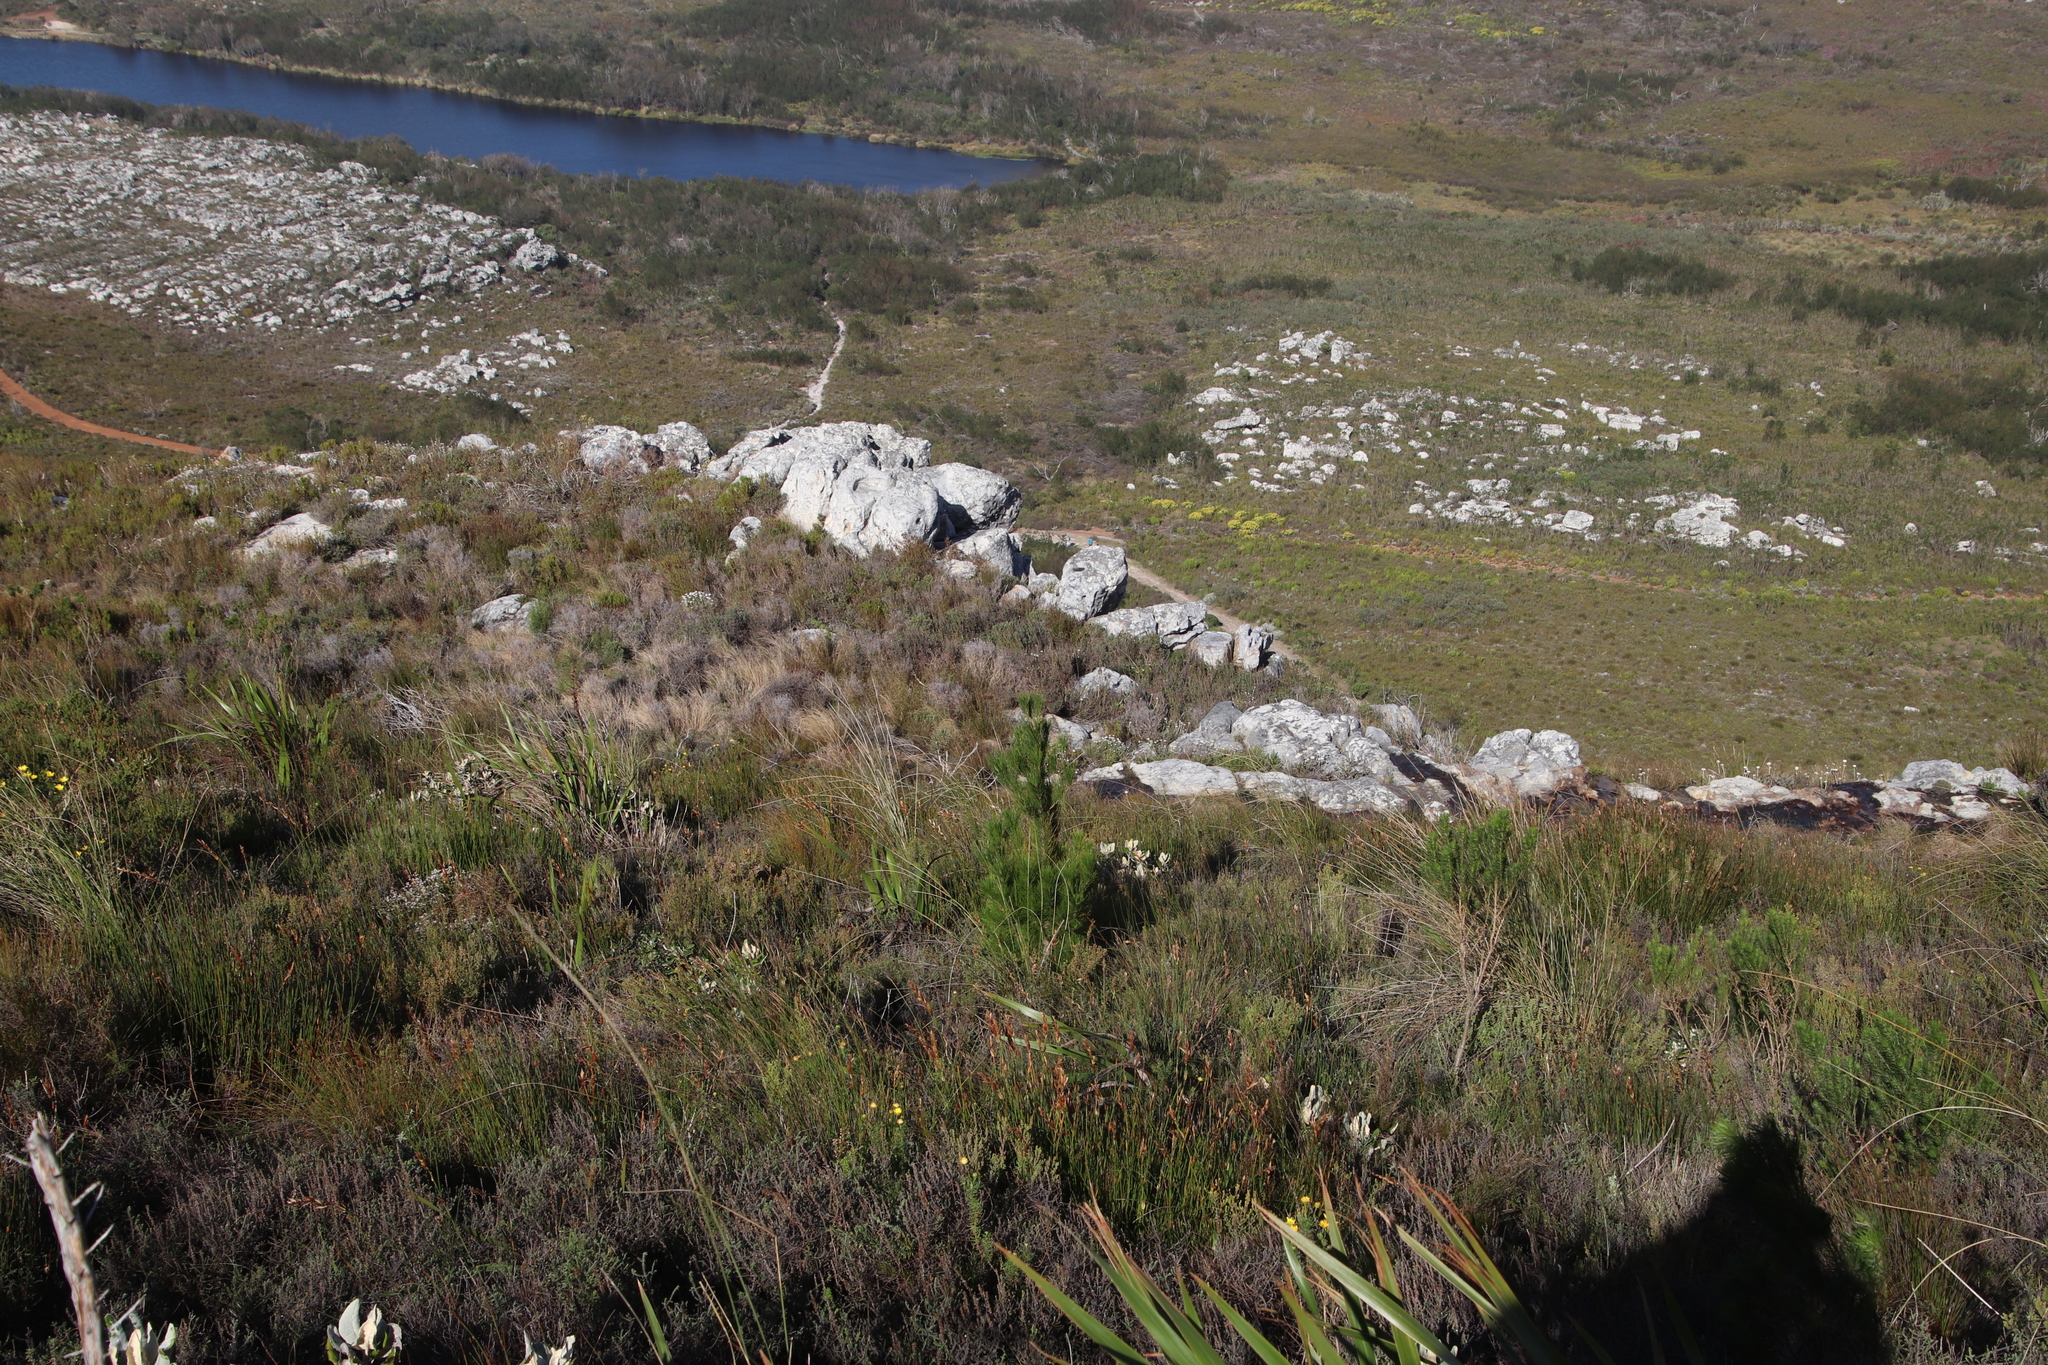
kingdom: Plantae
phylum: Tracheophyta
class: Pinopsida
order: Pinales
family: Pinaceae
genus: Pinus
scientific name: Pinus radiata
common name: Monterey pine
